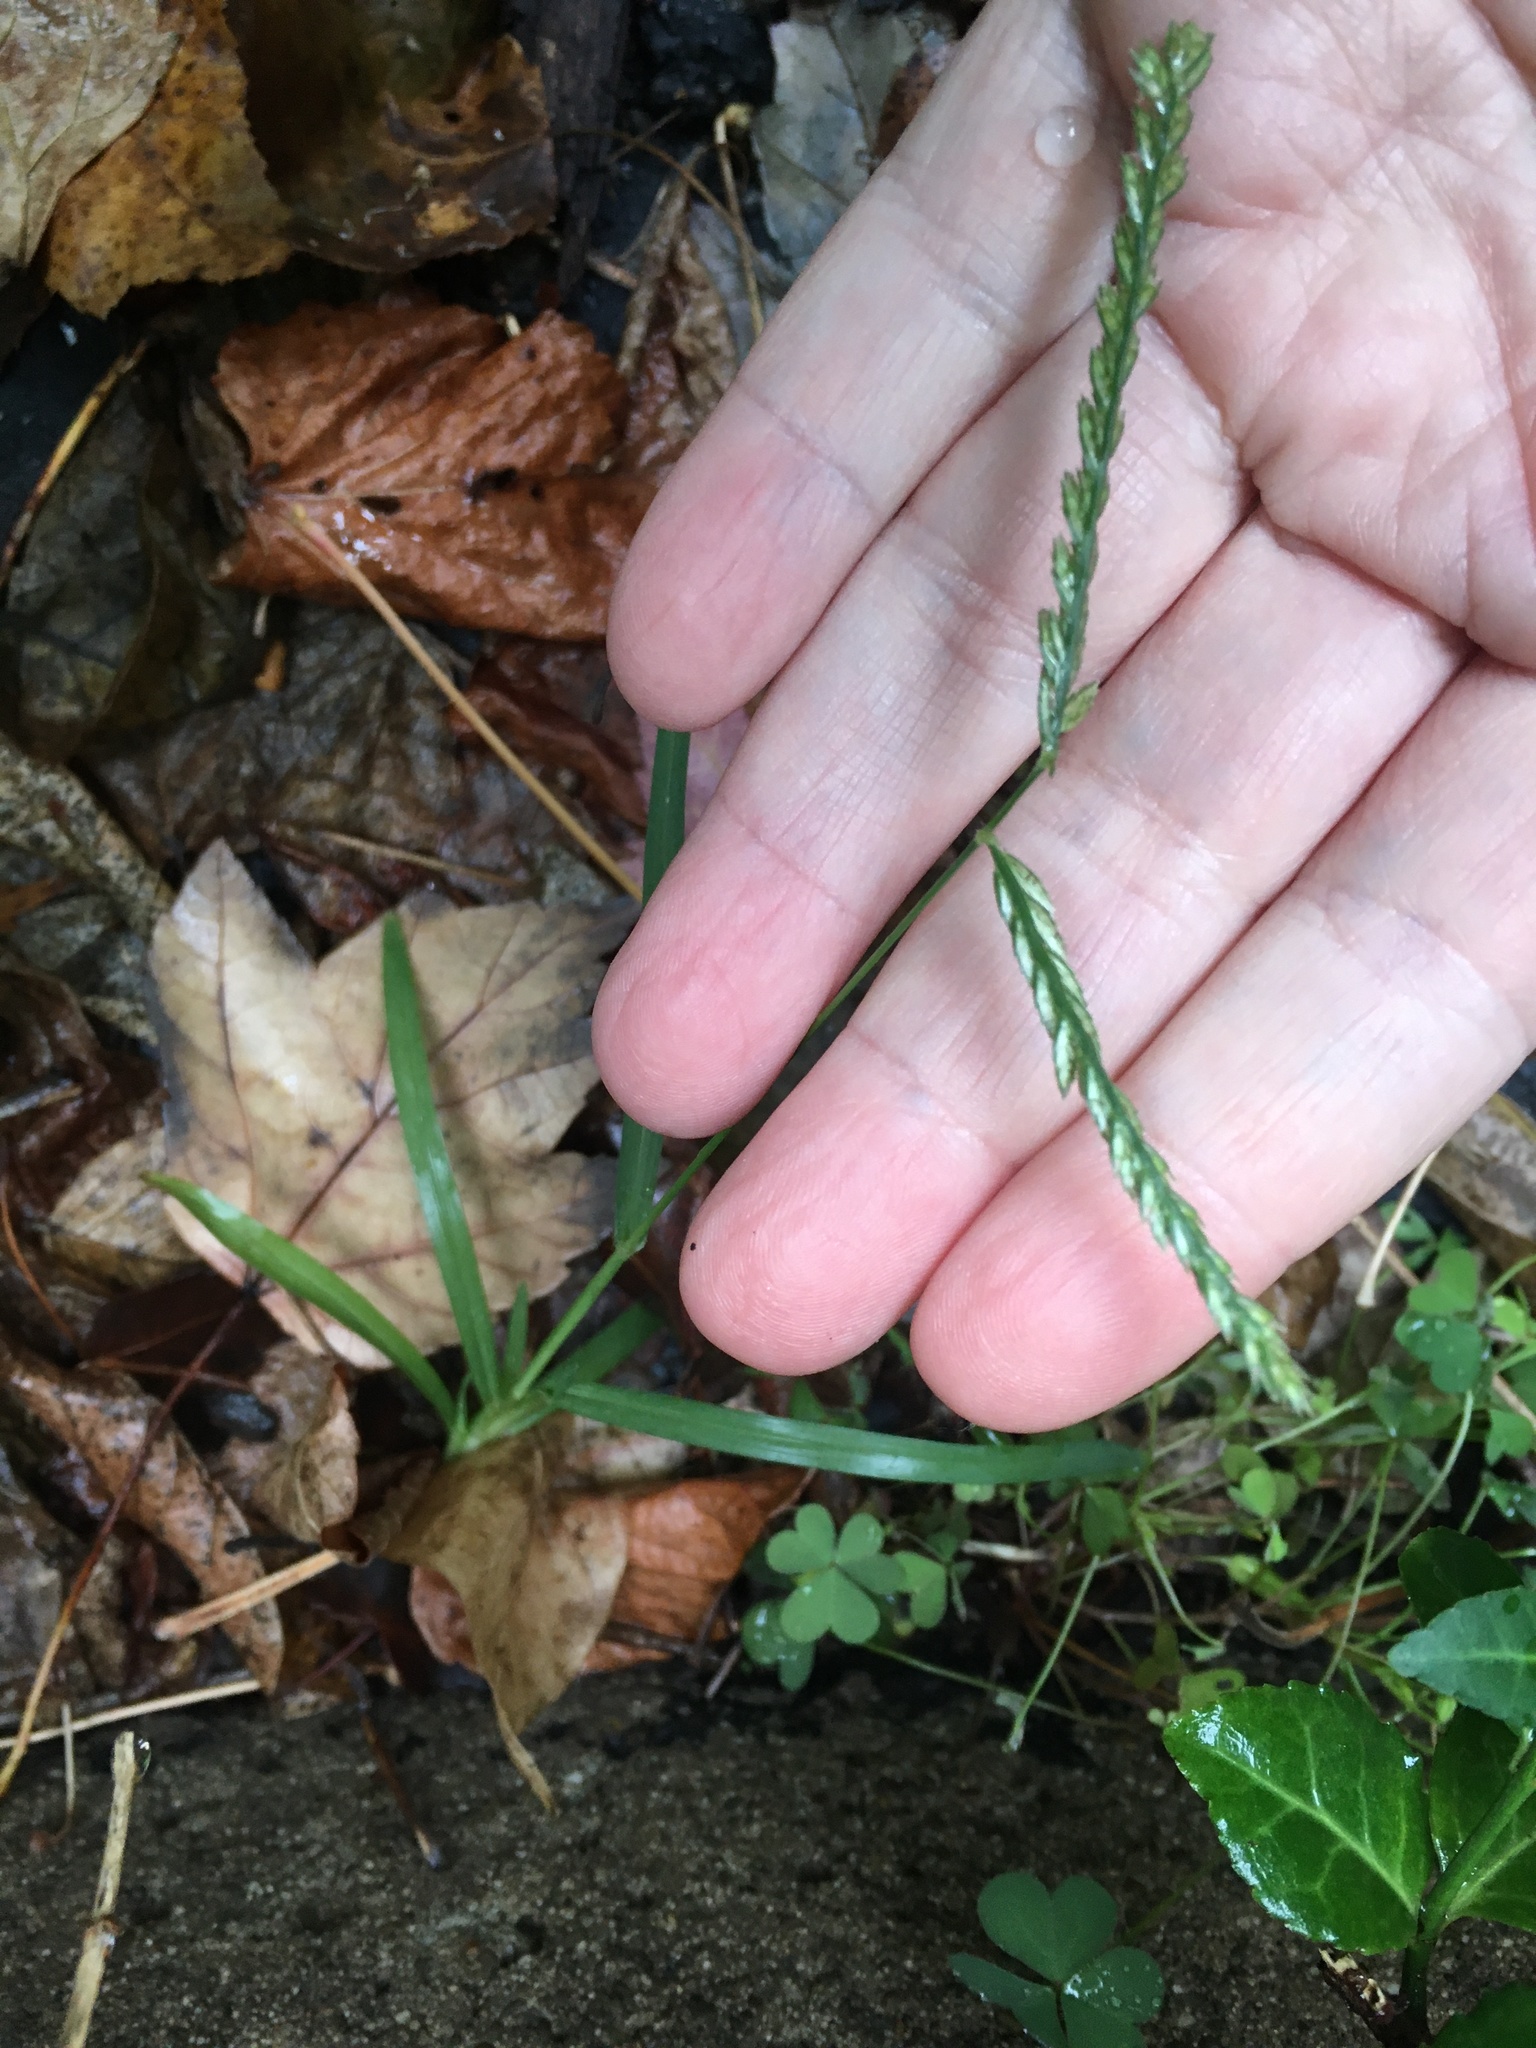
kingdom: Plantae
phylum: Tracheophyta
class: Liliopsida
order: Poales
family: Poaceae
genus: Eleusine
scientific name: Eleusine indica
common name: Yard-grass
